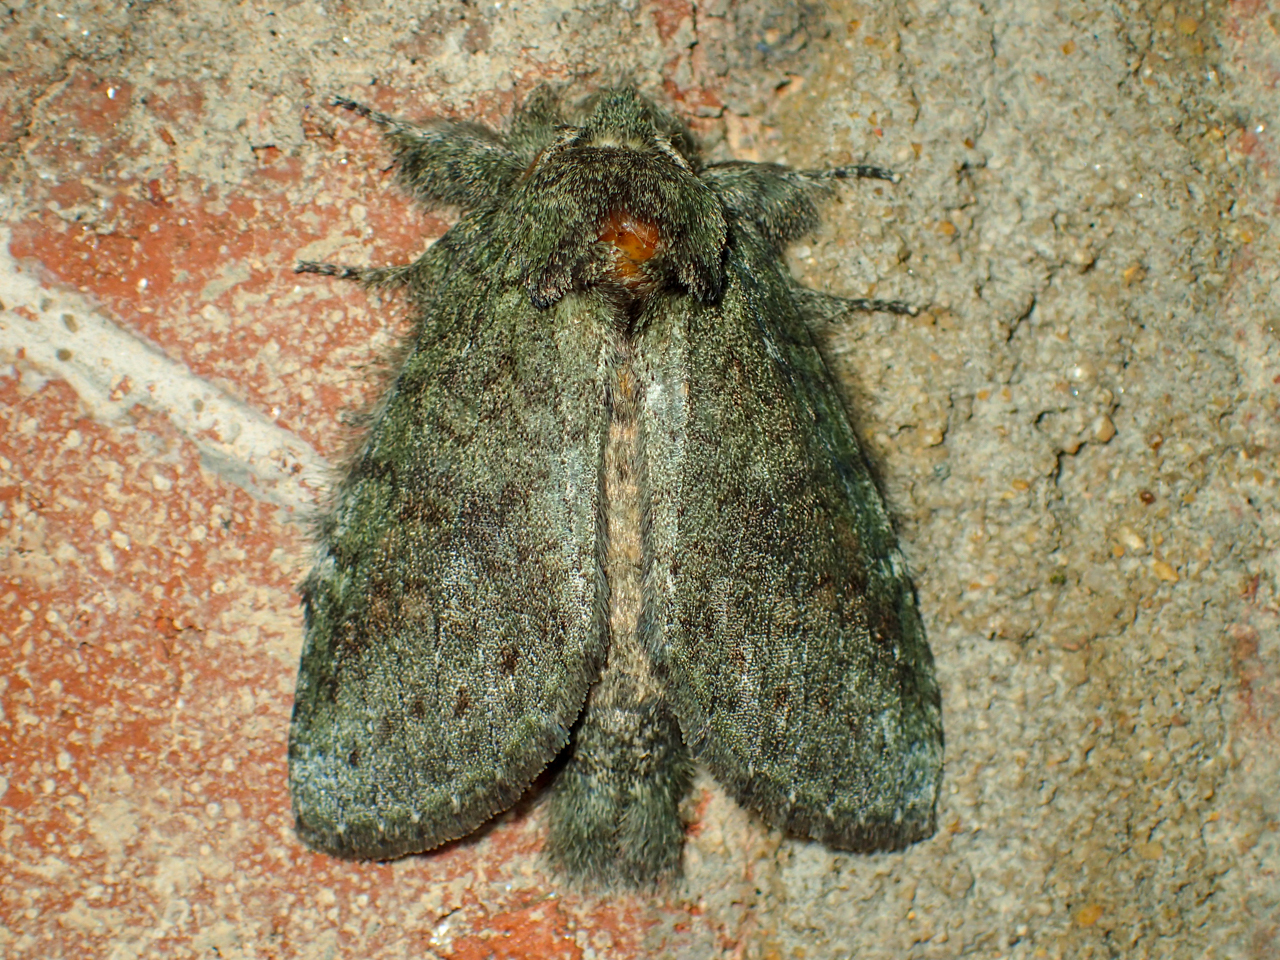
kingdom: Animalia
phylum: Arthropoda
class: Insecta
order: Lepidoptera
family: Notodontidae
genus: Disphragis
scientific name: Disphragis Cecrita guttivitta
